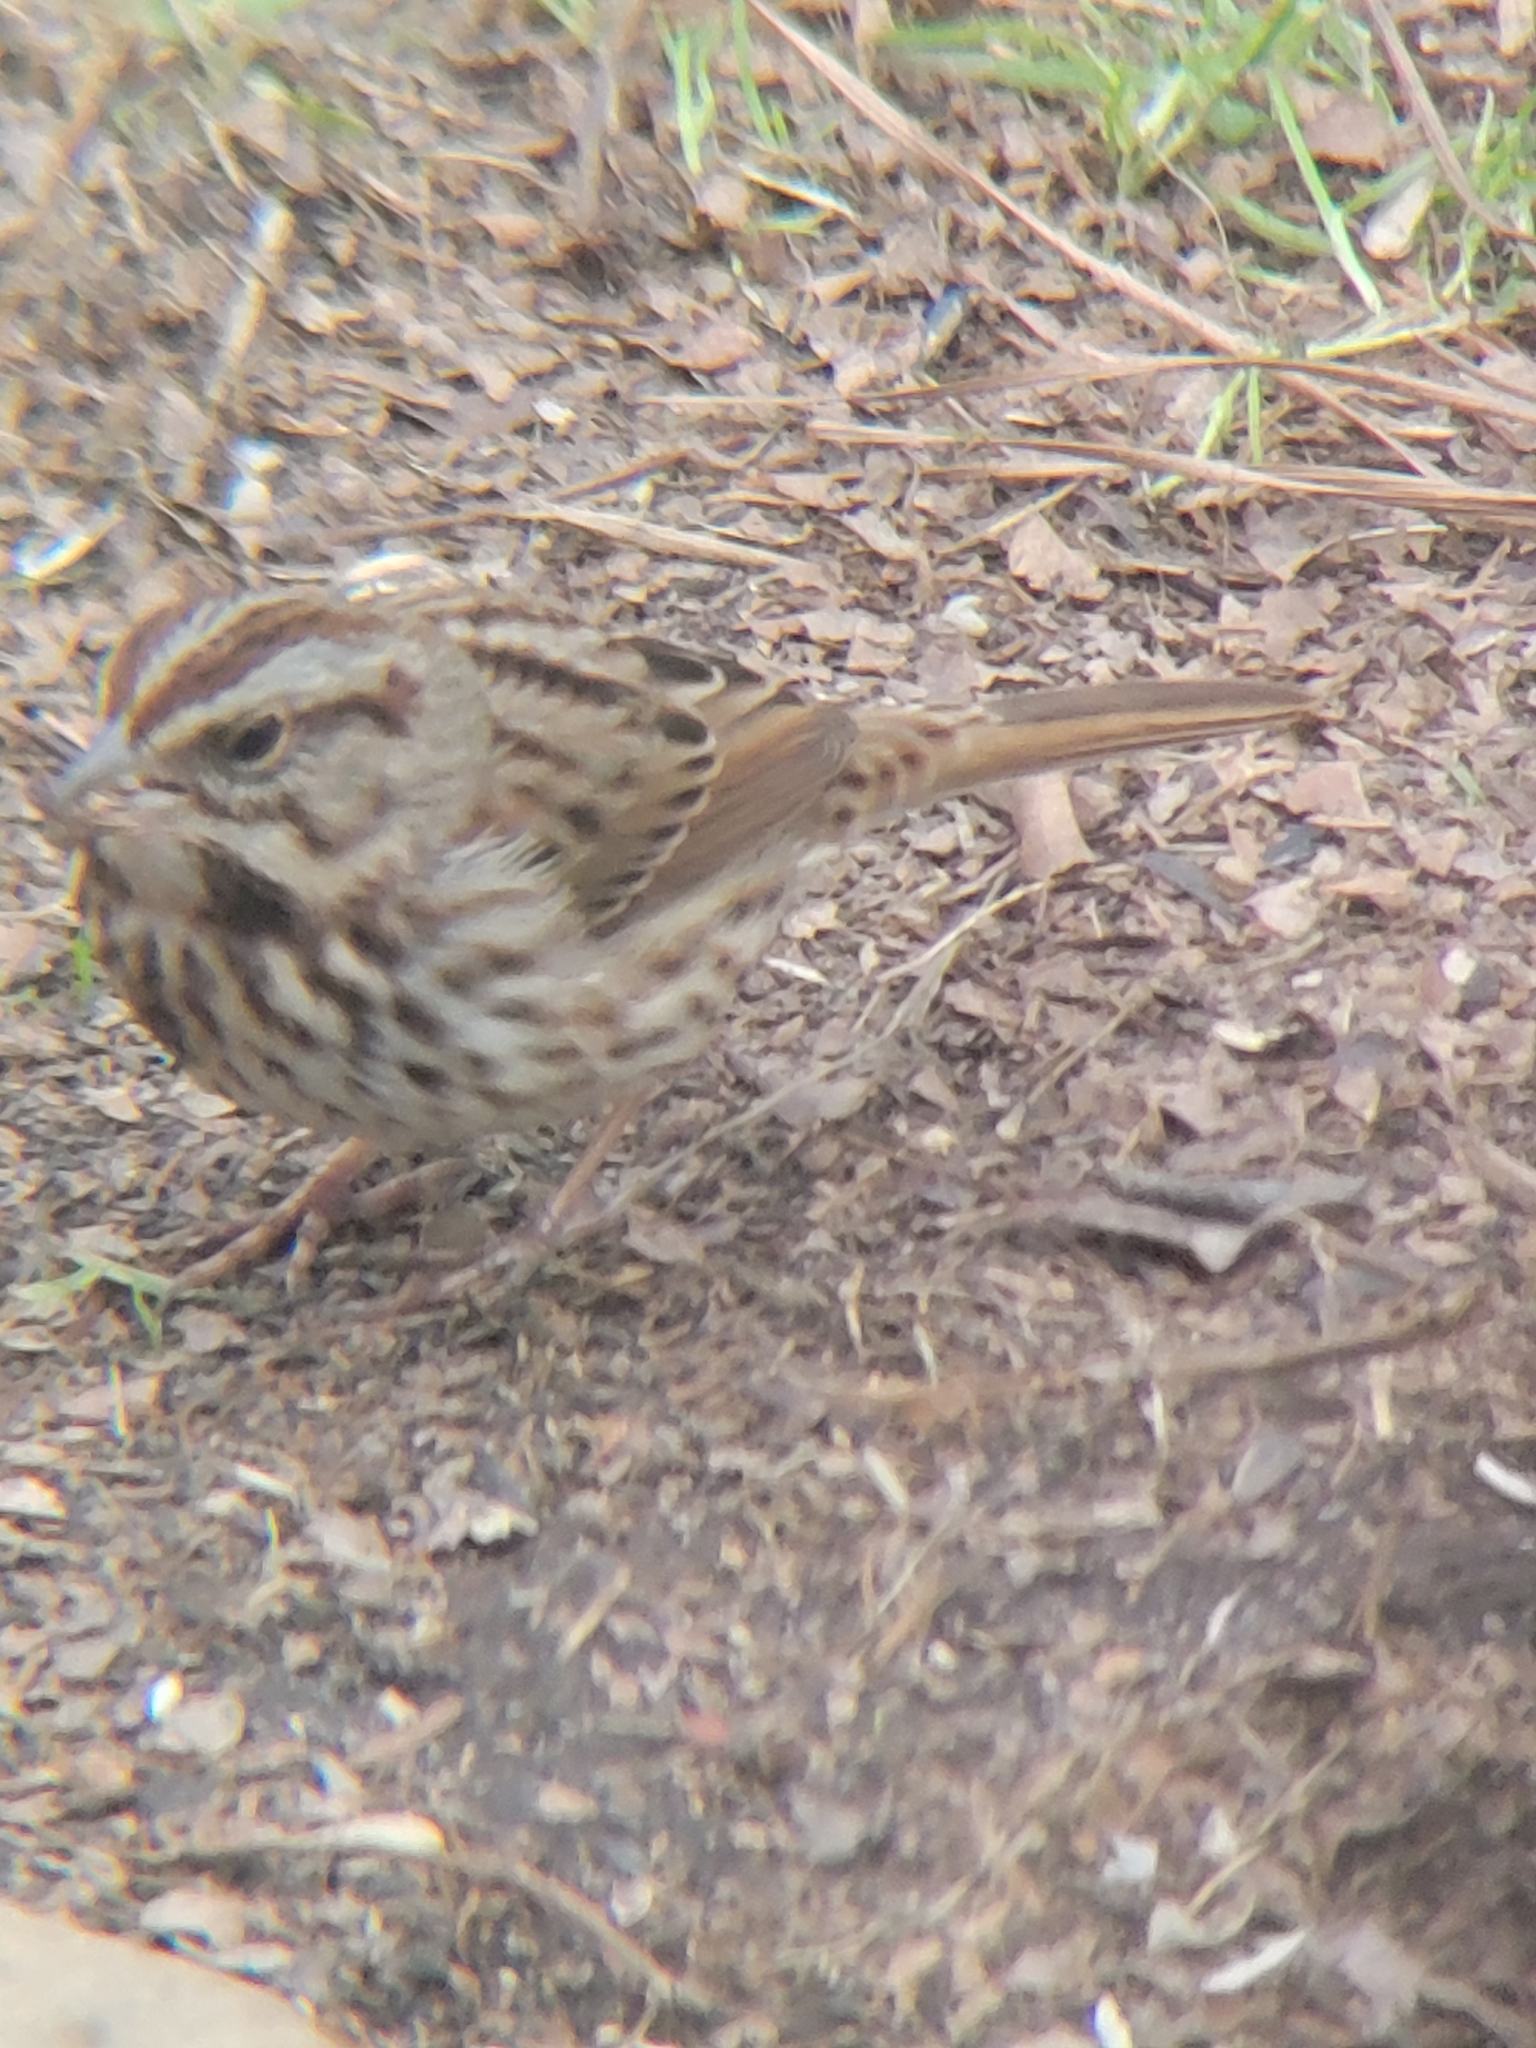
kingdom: Animalia
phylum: Chordata
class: Aves
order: Passeriformes
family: Passerellidae
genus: Melospiza
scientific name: Melospiza melodia
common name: Song sparrow
